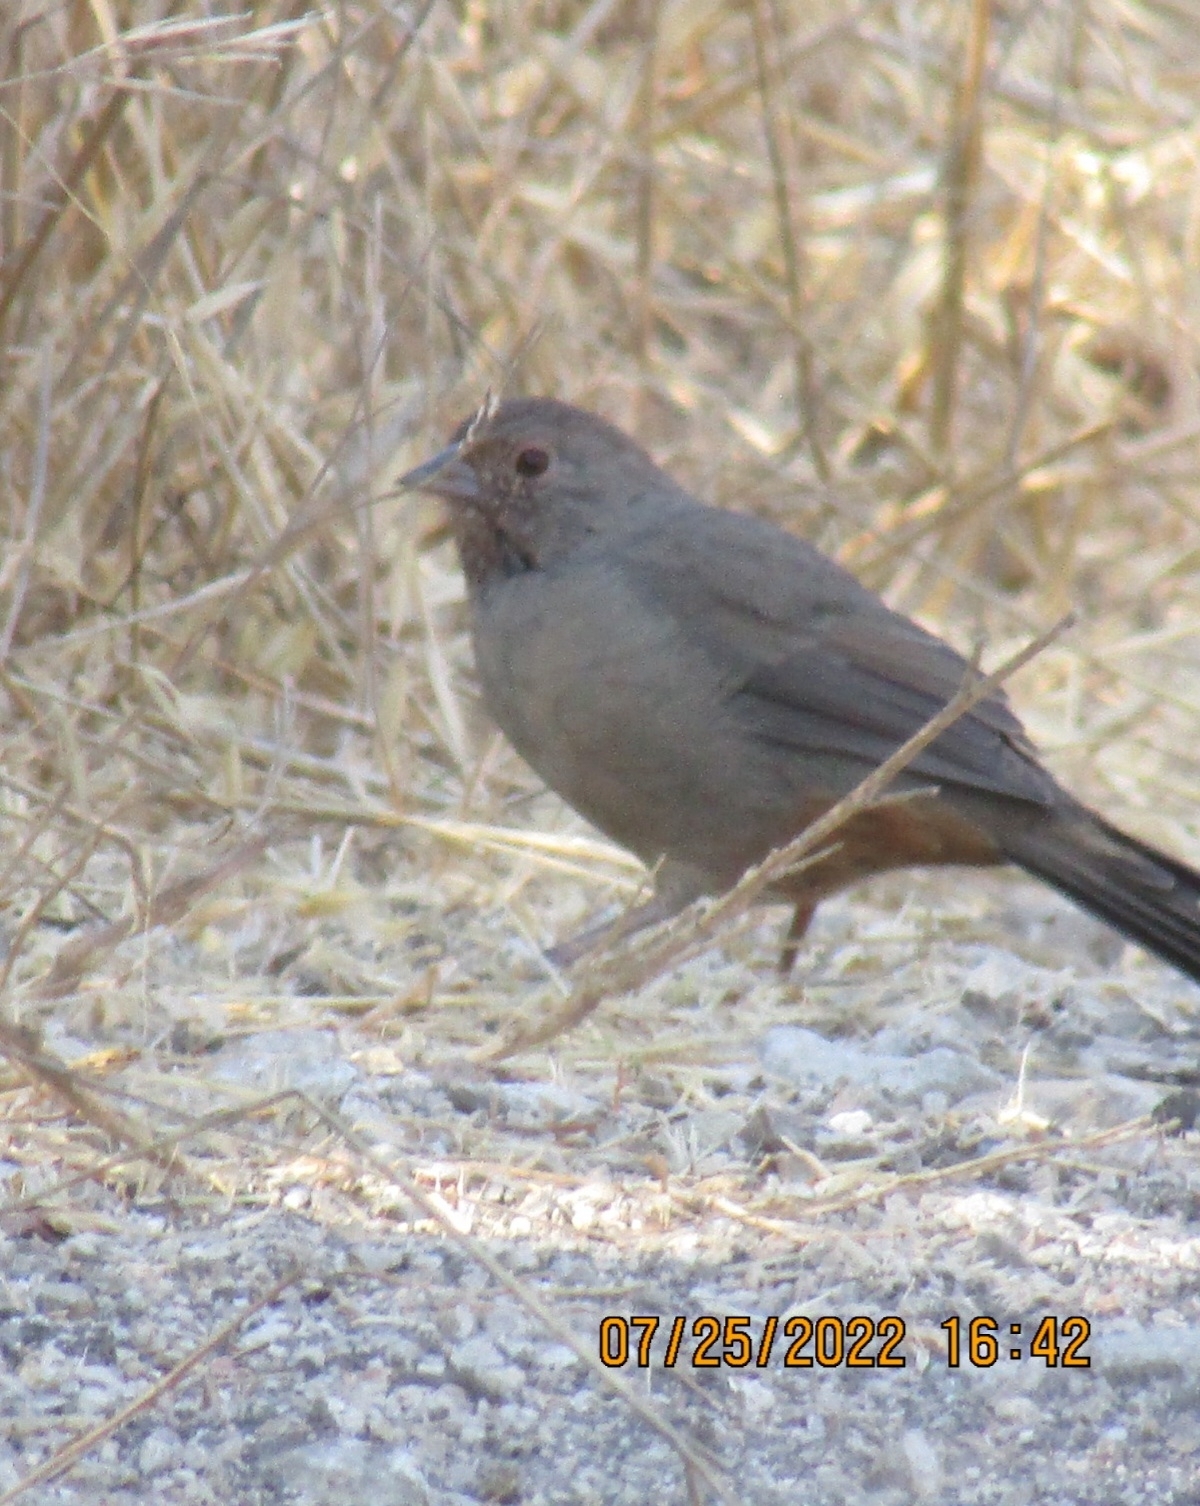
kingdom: Animalia
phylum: Chordata
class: Aves
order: Passeriformes
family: Passerellidae
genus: Melozone
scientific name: Melozone crissalis
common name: California towhee
